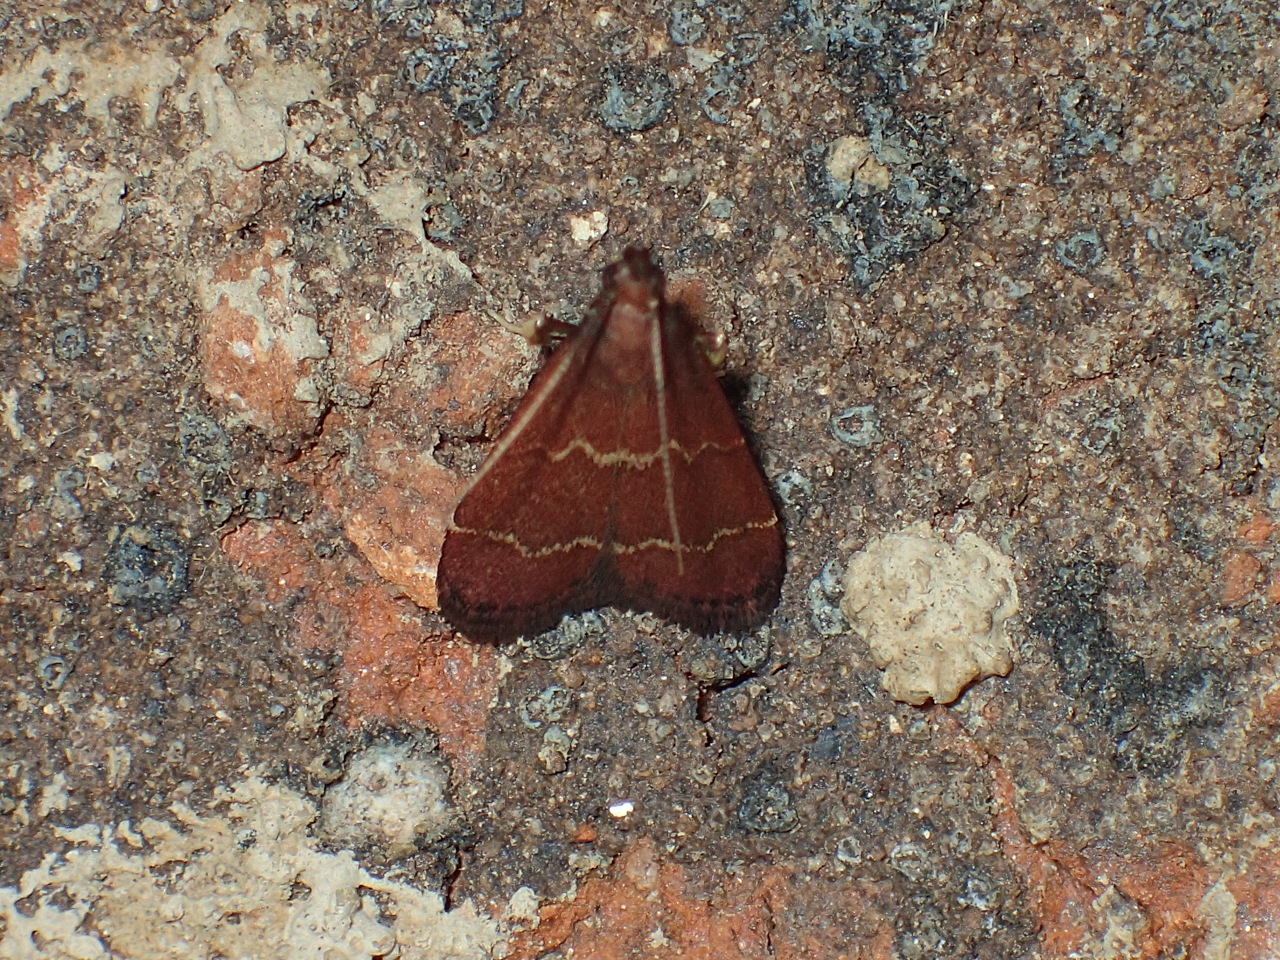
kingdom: Animalia
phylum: Arthropoda
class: Insecta
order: Lepidoptera
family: Pyralidae
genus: Arta
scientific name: Arta
